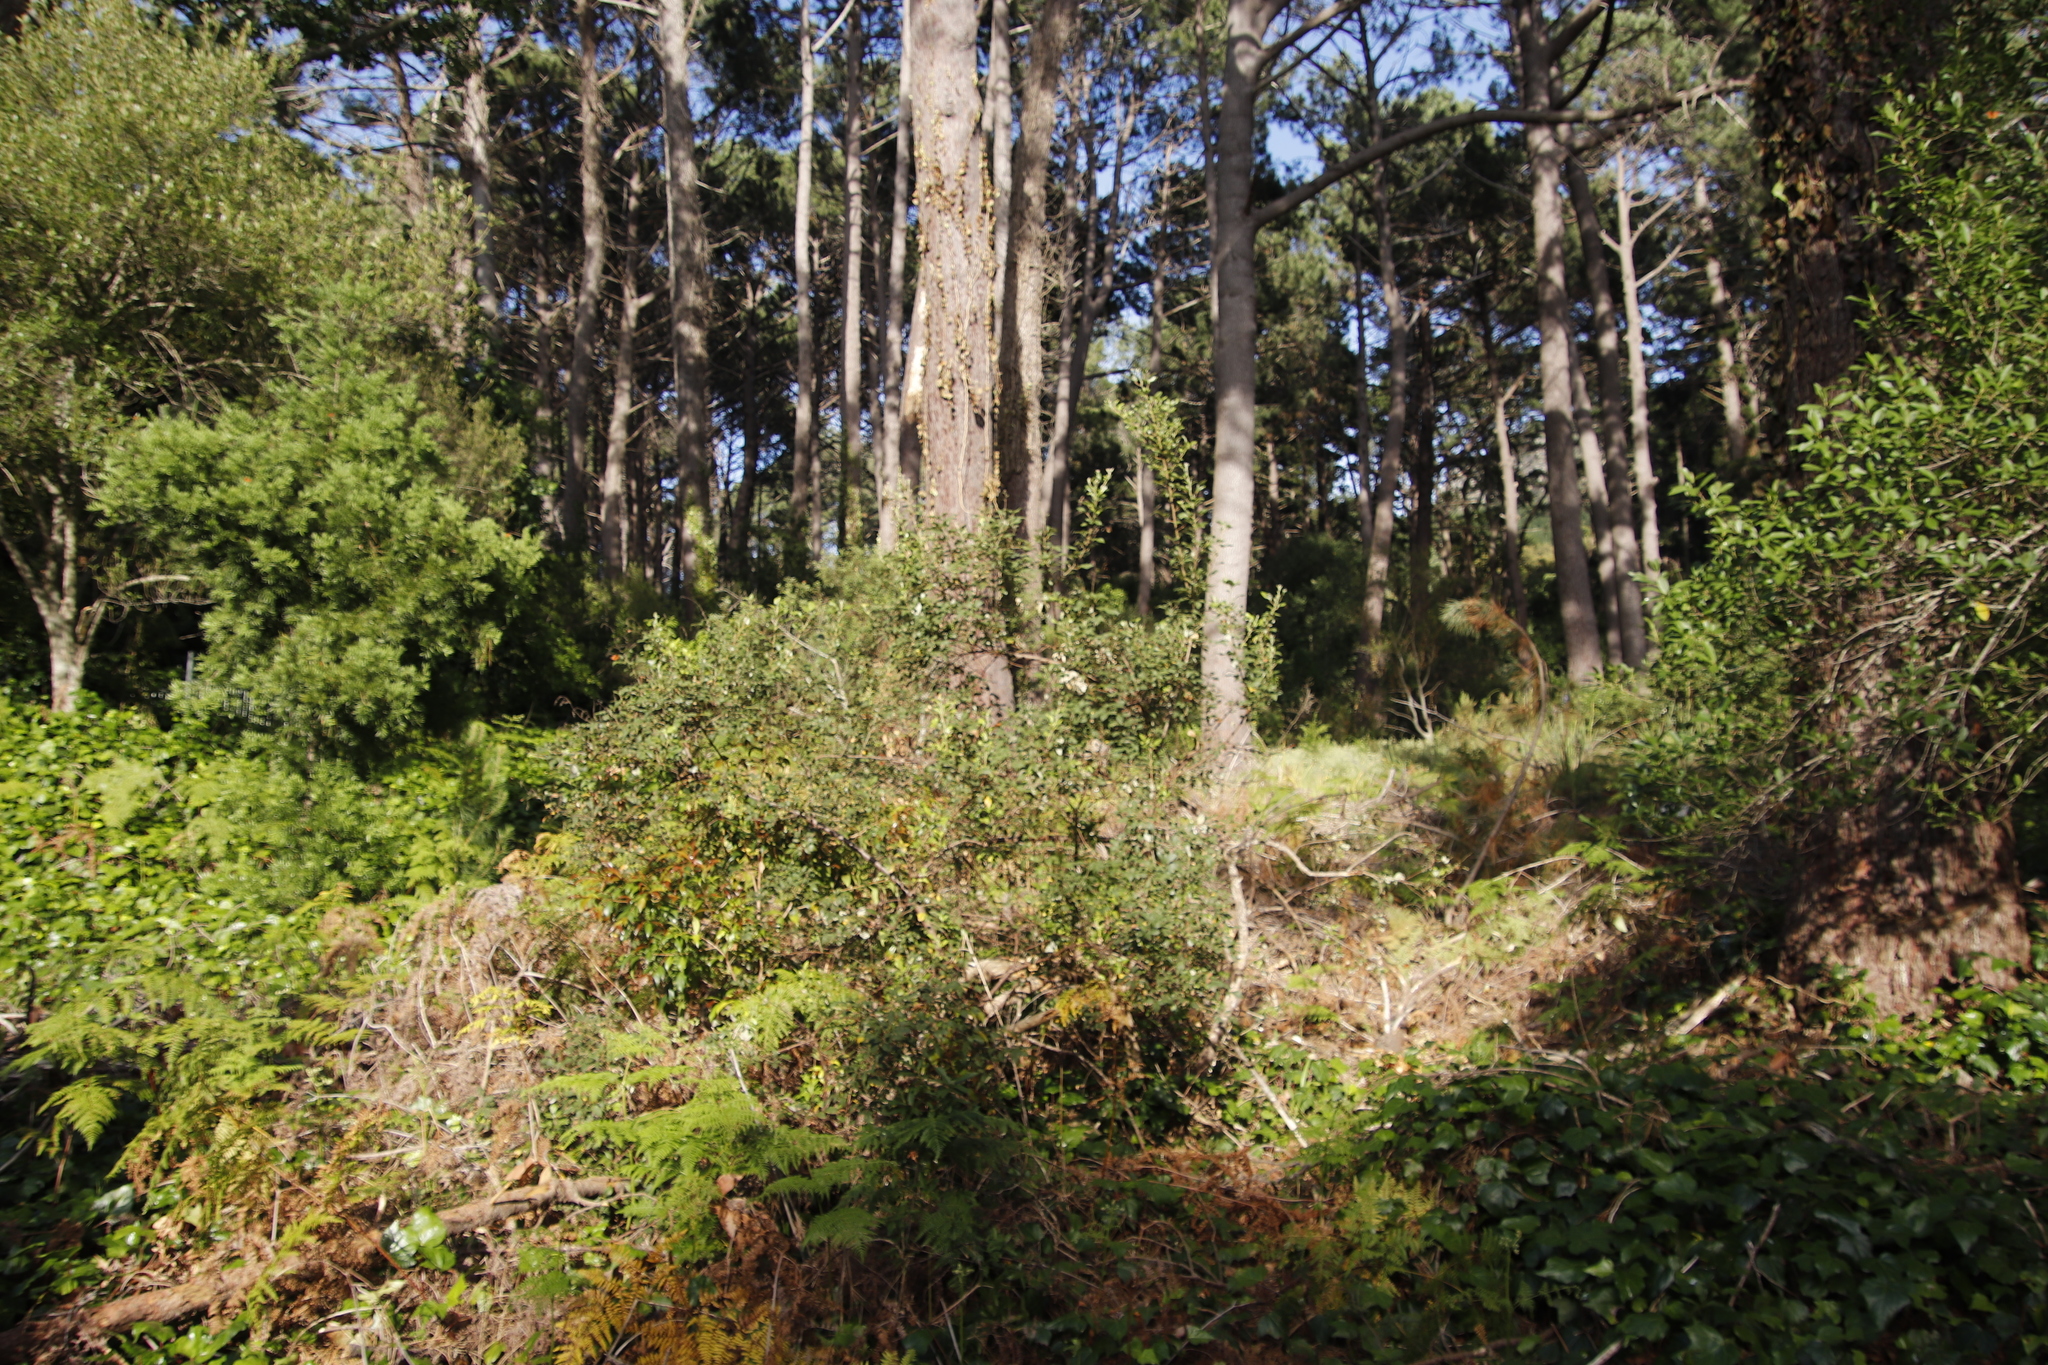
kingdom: Plantae
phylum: Tracheophyta
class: Magnoliopsida
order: Sapindales
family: Anacardiaceae
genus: Searsia
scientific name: Searsia tomentosa
